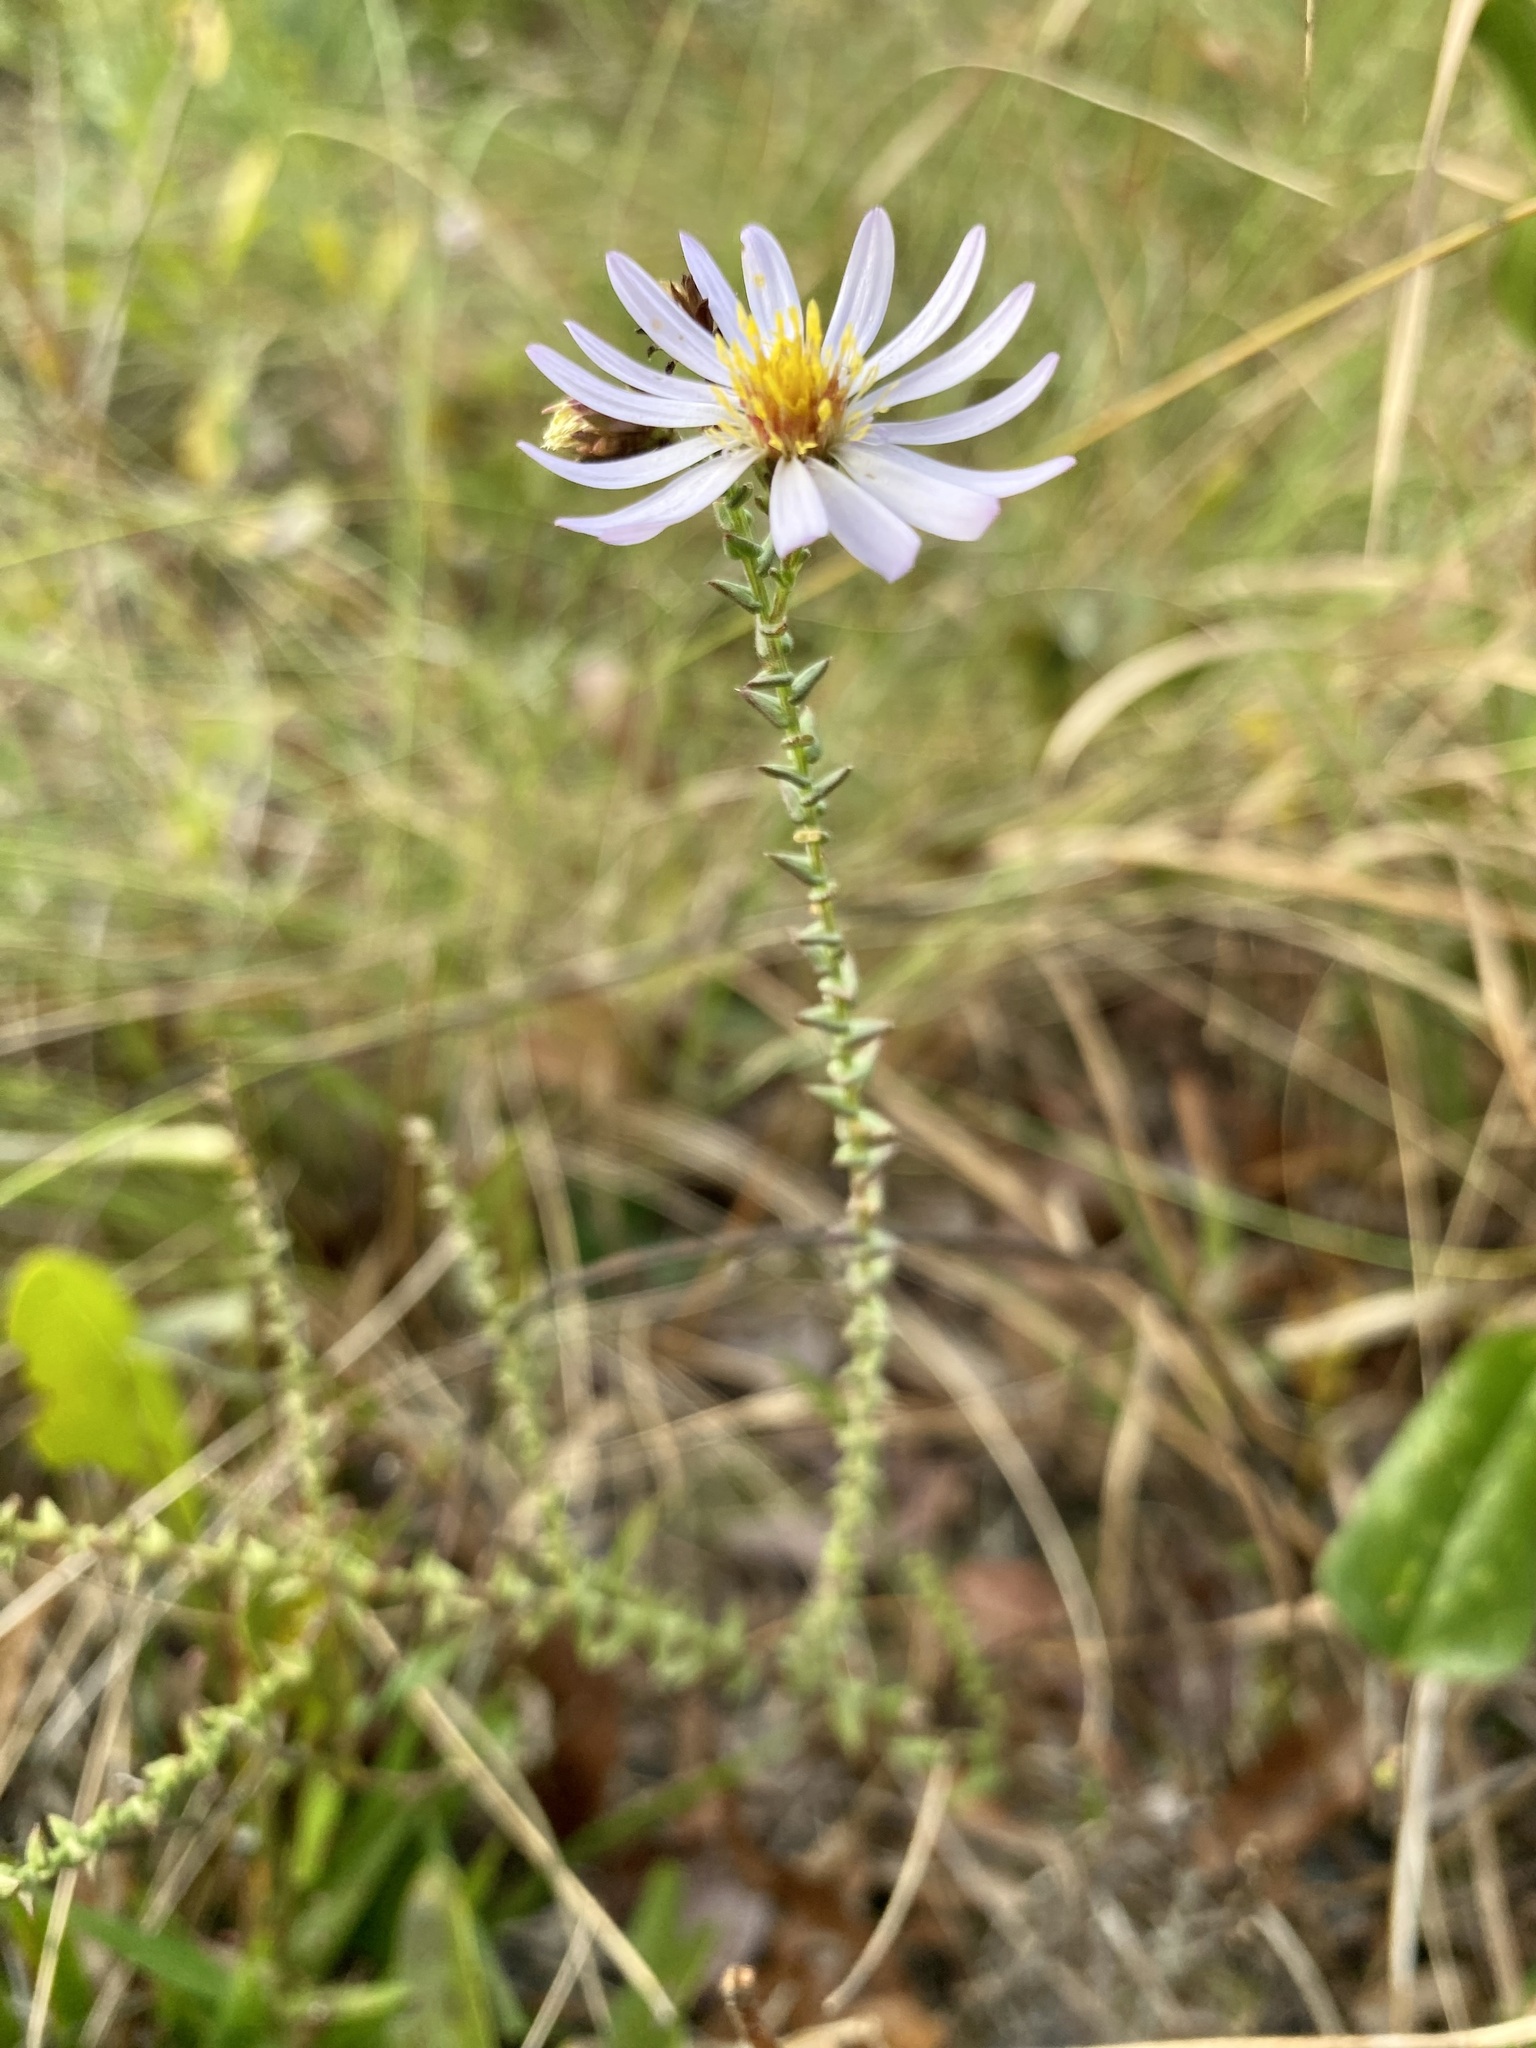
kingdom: Plantae
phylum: Tracheophyta
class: Magnoliopsida
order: Asterales
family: Asteraceae
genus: Symphyotrichum
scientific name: Symphyotrichum walteri
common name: Walter's aster
